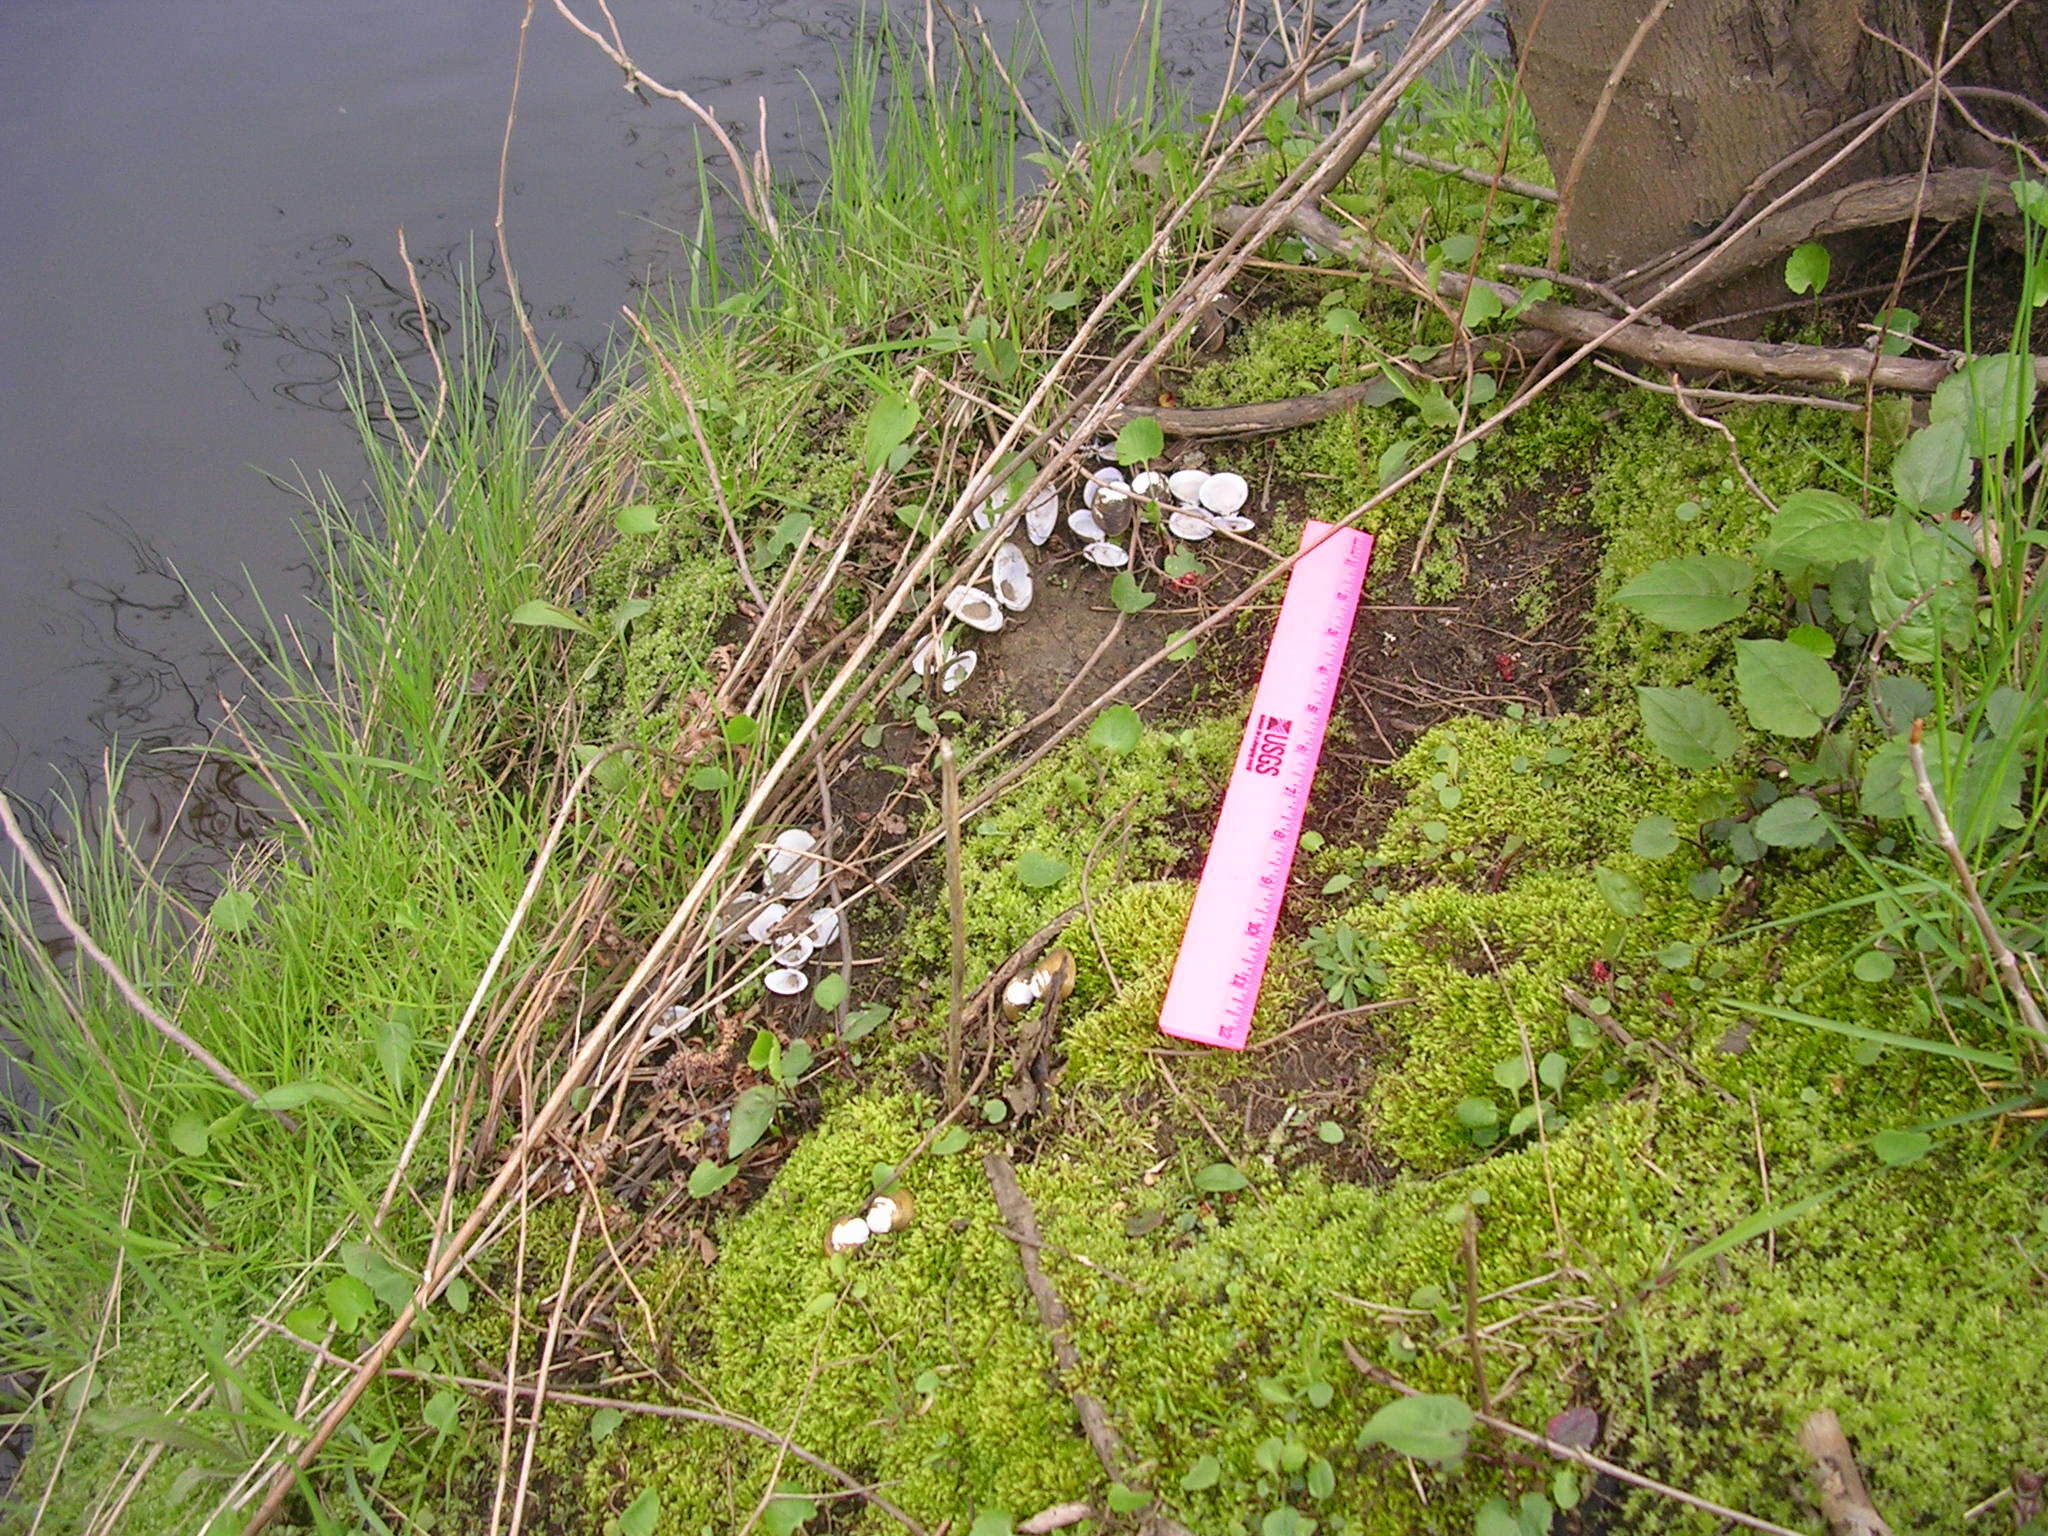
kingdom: Animalia
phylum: Mollusca
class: Bivalvia
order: Venerida
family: Cyrenidae
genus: Corbicula
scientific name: Corbicula fluminea
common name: Asian clam
